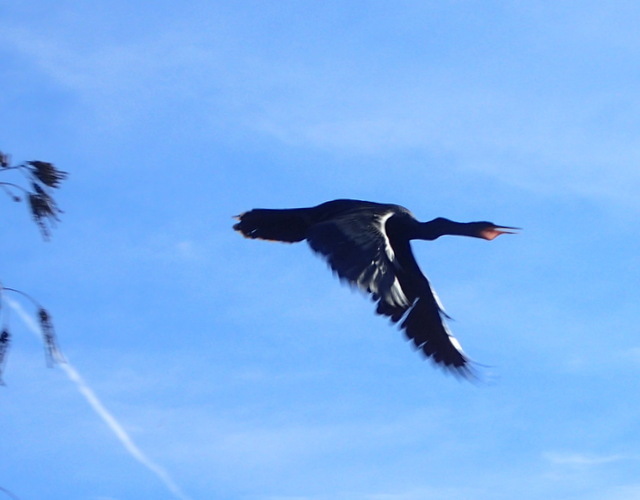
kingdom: Animalia
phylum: Chordata
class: Aves
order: Suliformes
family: Anhingidae
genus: Anhinga
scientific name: Anhinga anhinga
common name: Anhinga
